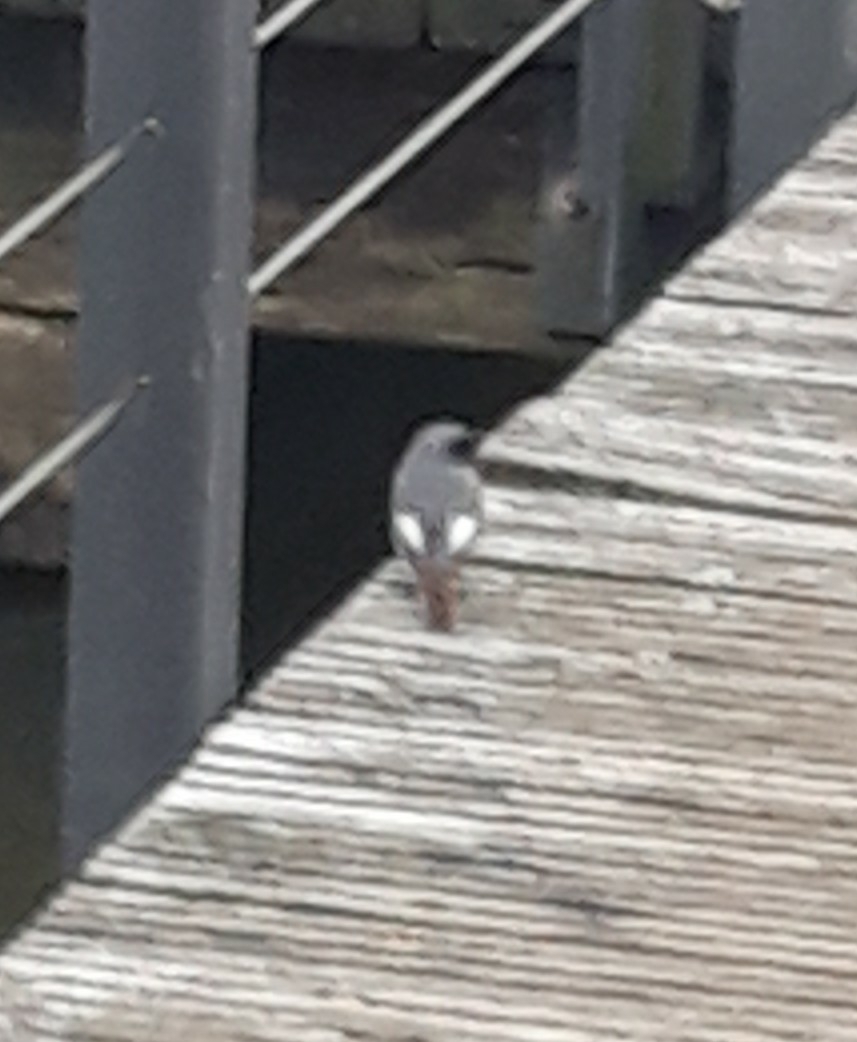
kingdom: Animalia
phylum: Chordata
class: Aves
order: Passeriformes
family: Muscicapidae
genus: Phoenicurus
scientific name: Phoenicurus ochruros
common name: Black redstart
